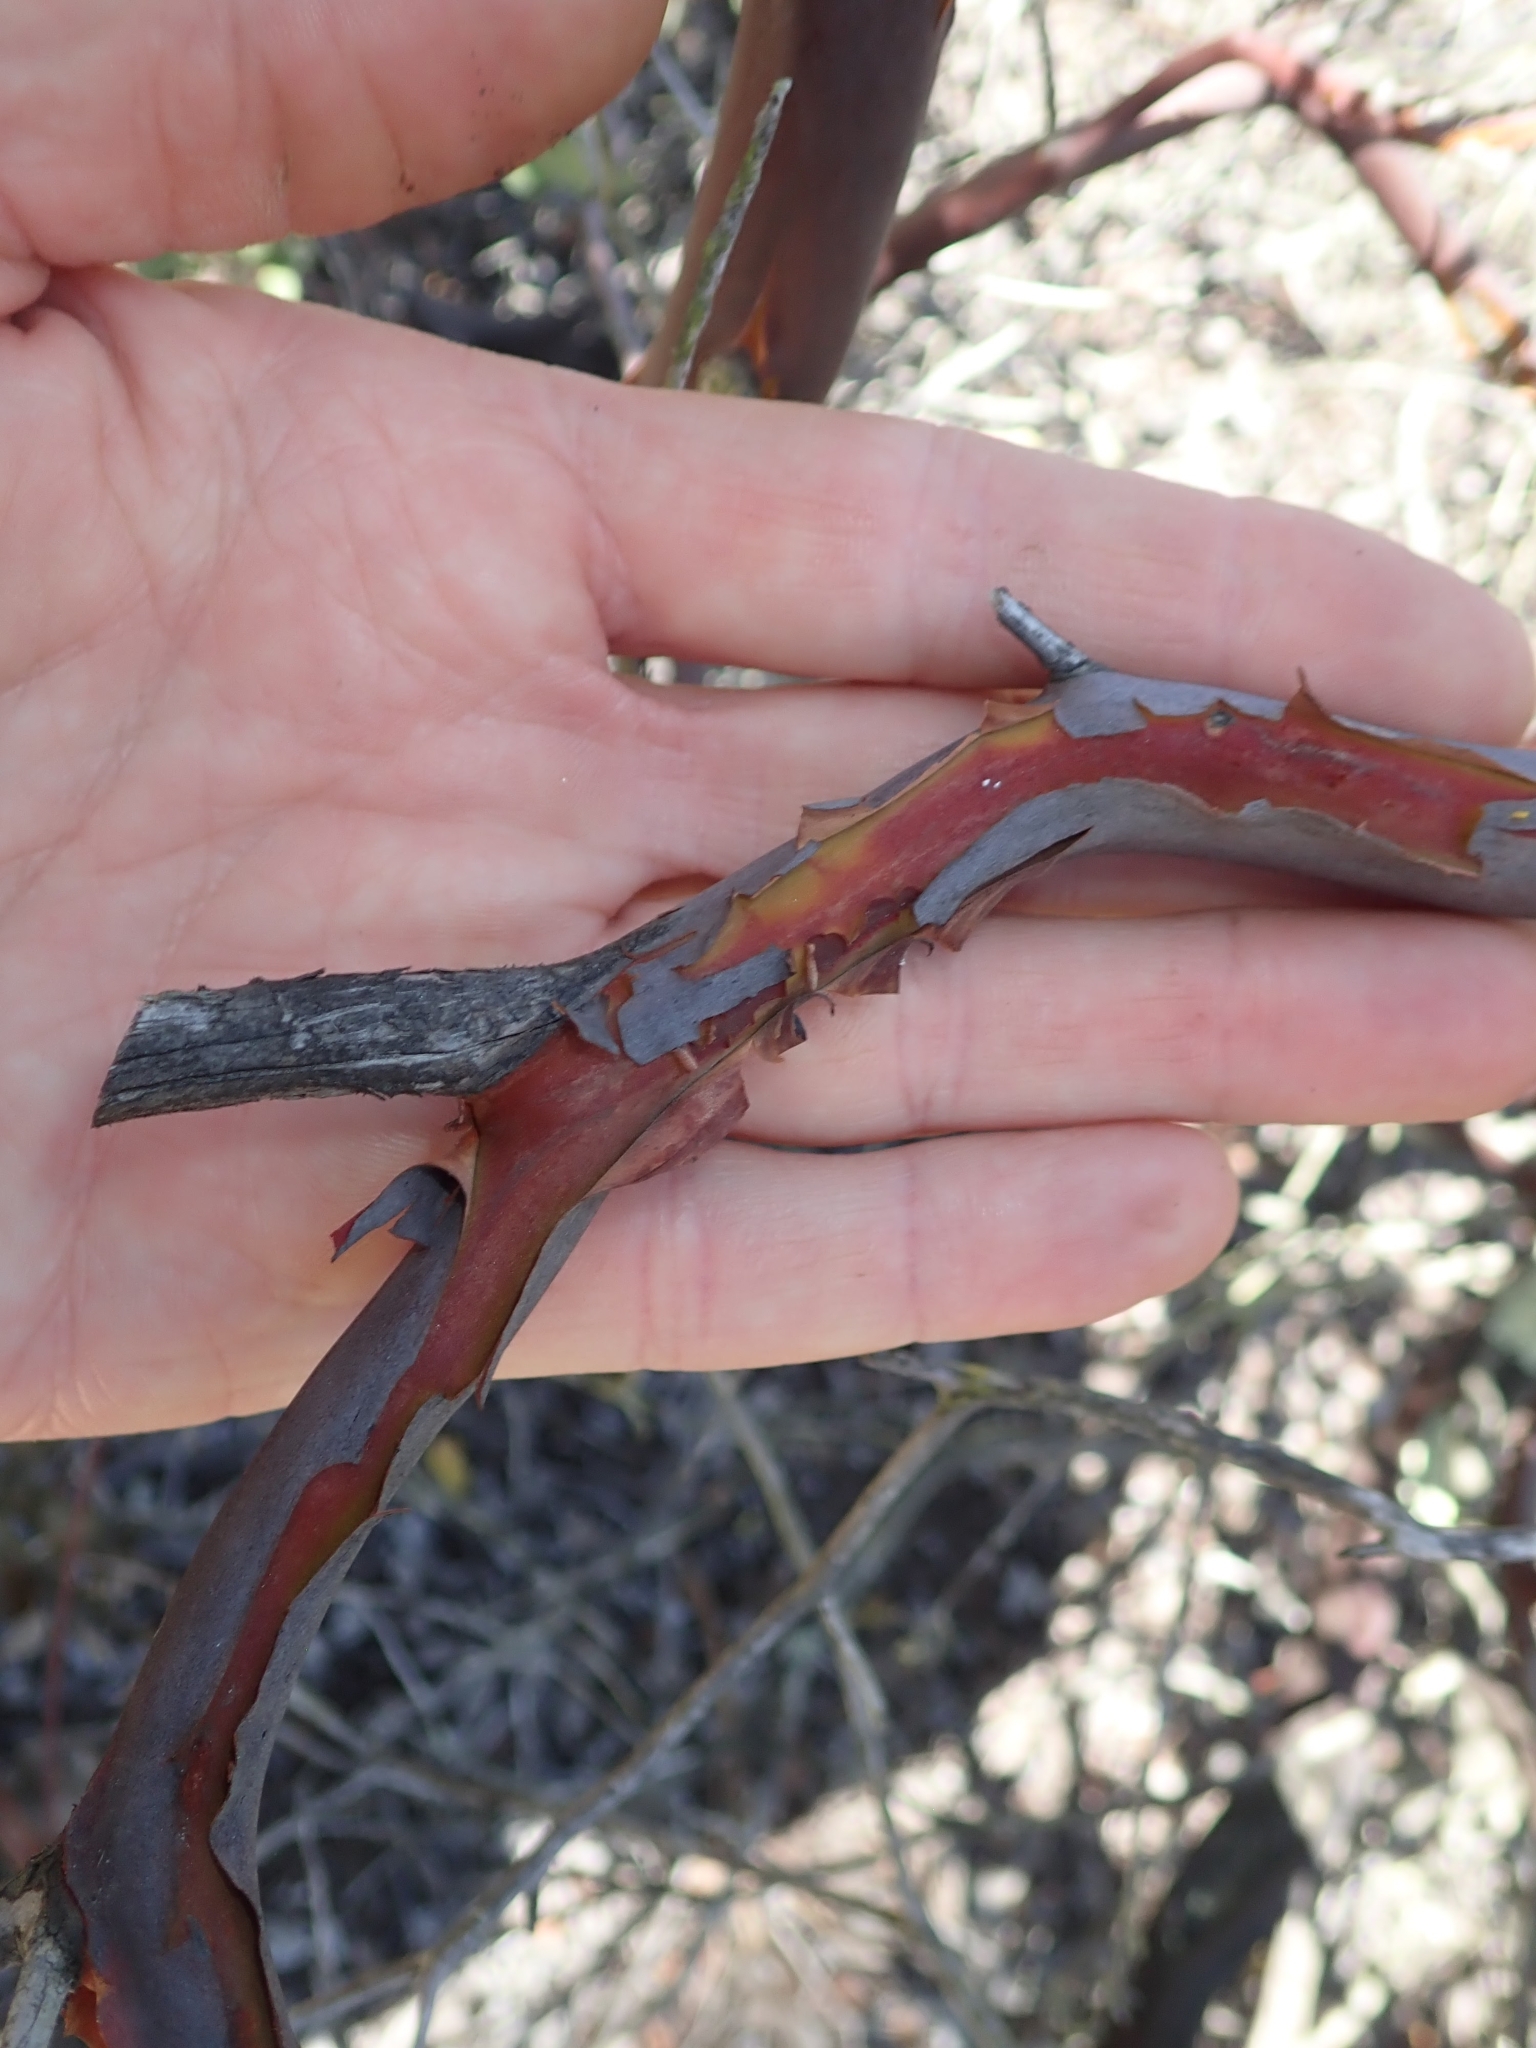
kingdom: Plantae
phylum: Tracheophyta
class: Magnoliopsida
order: Ericales
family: Ericaceae
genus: Arctostaphylos
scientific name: Arctostaphylos glandulosa
